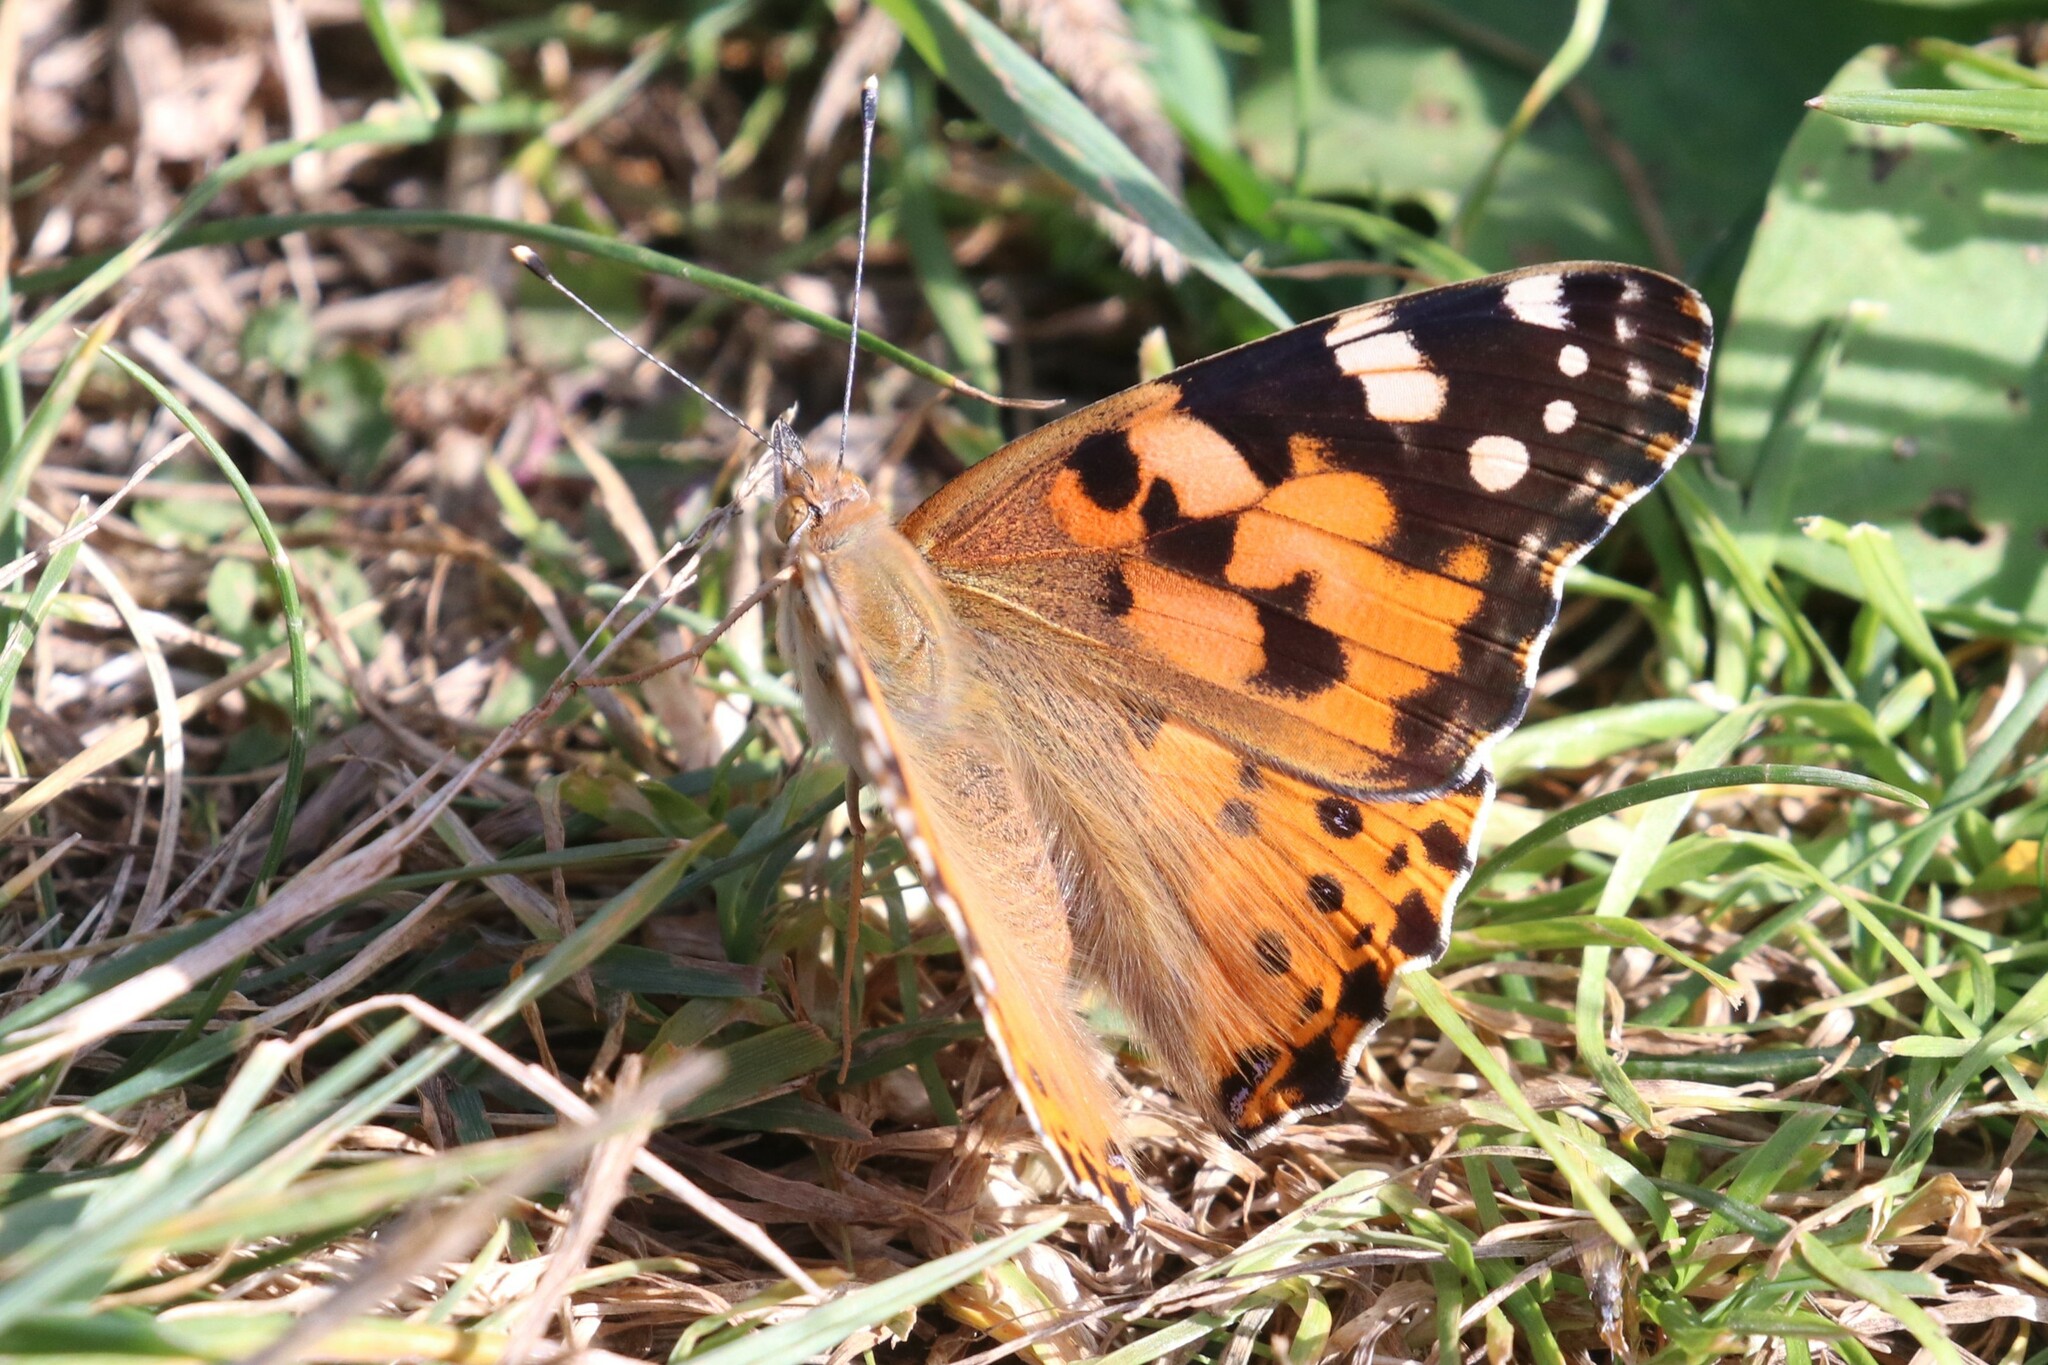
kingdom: Animalia
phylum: Arthropoda
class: Insecta
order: Lepidoptera
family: Nymphalidae
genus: Vanessa
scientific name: Vanessa cardui
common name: Painted lady
